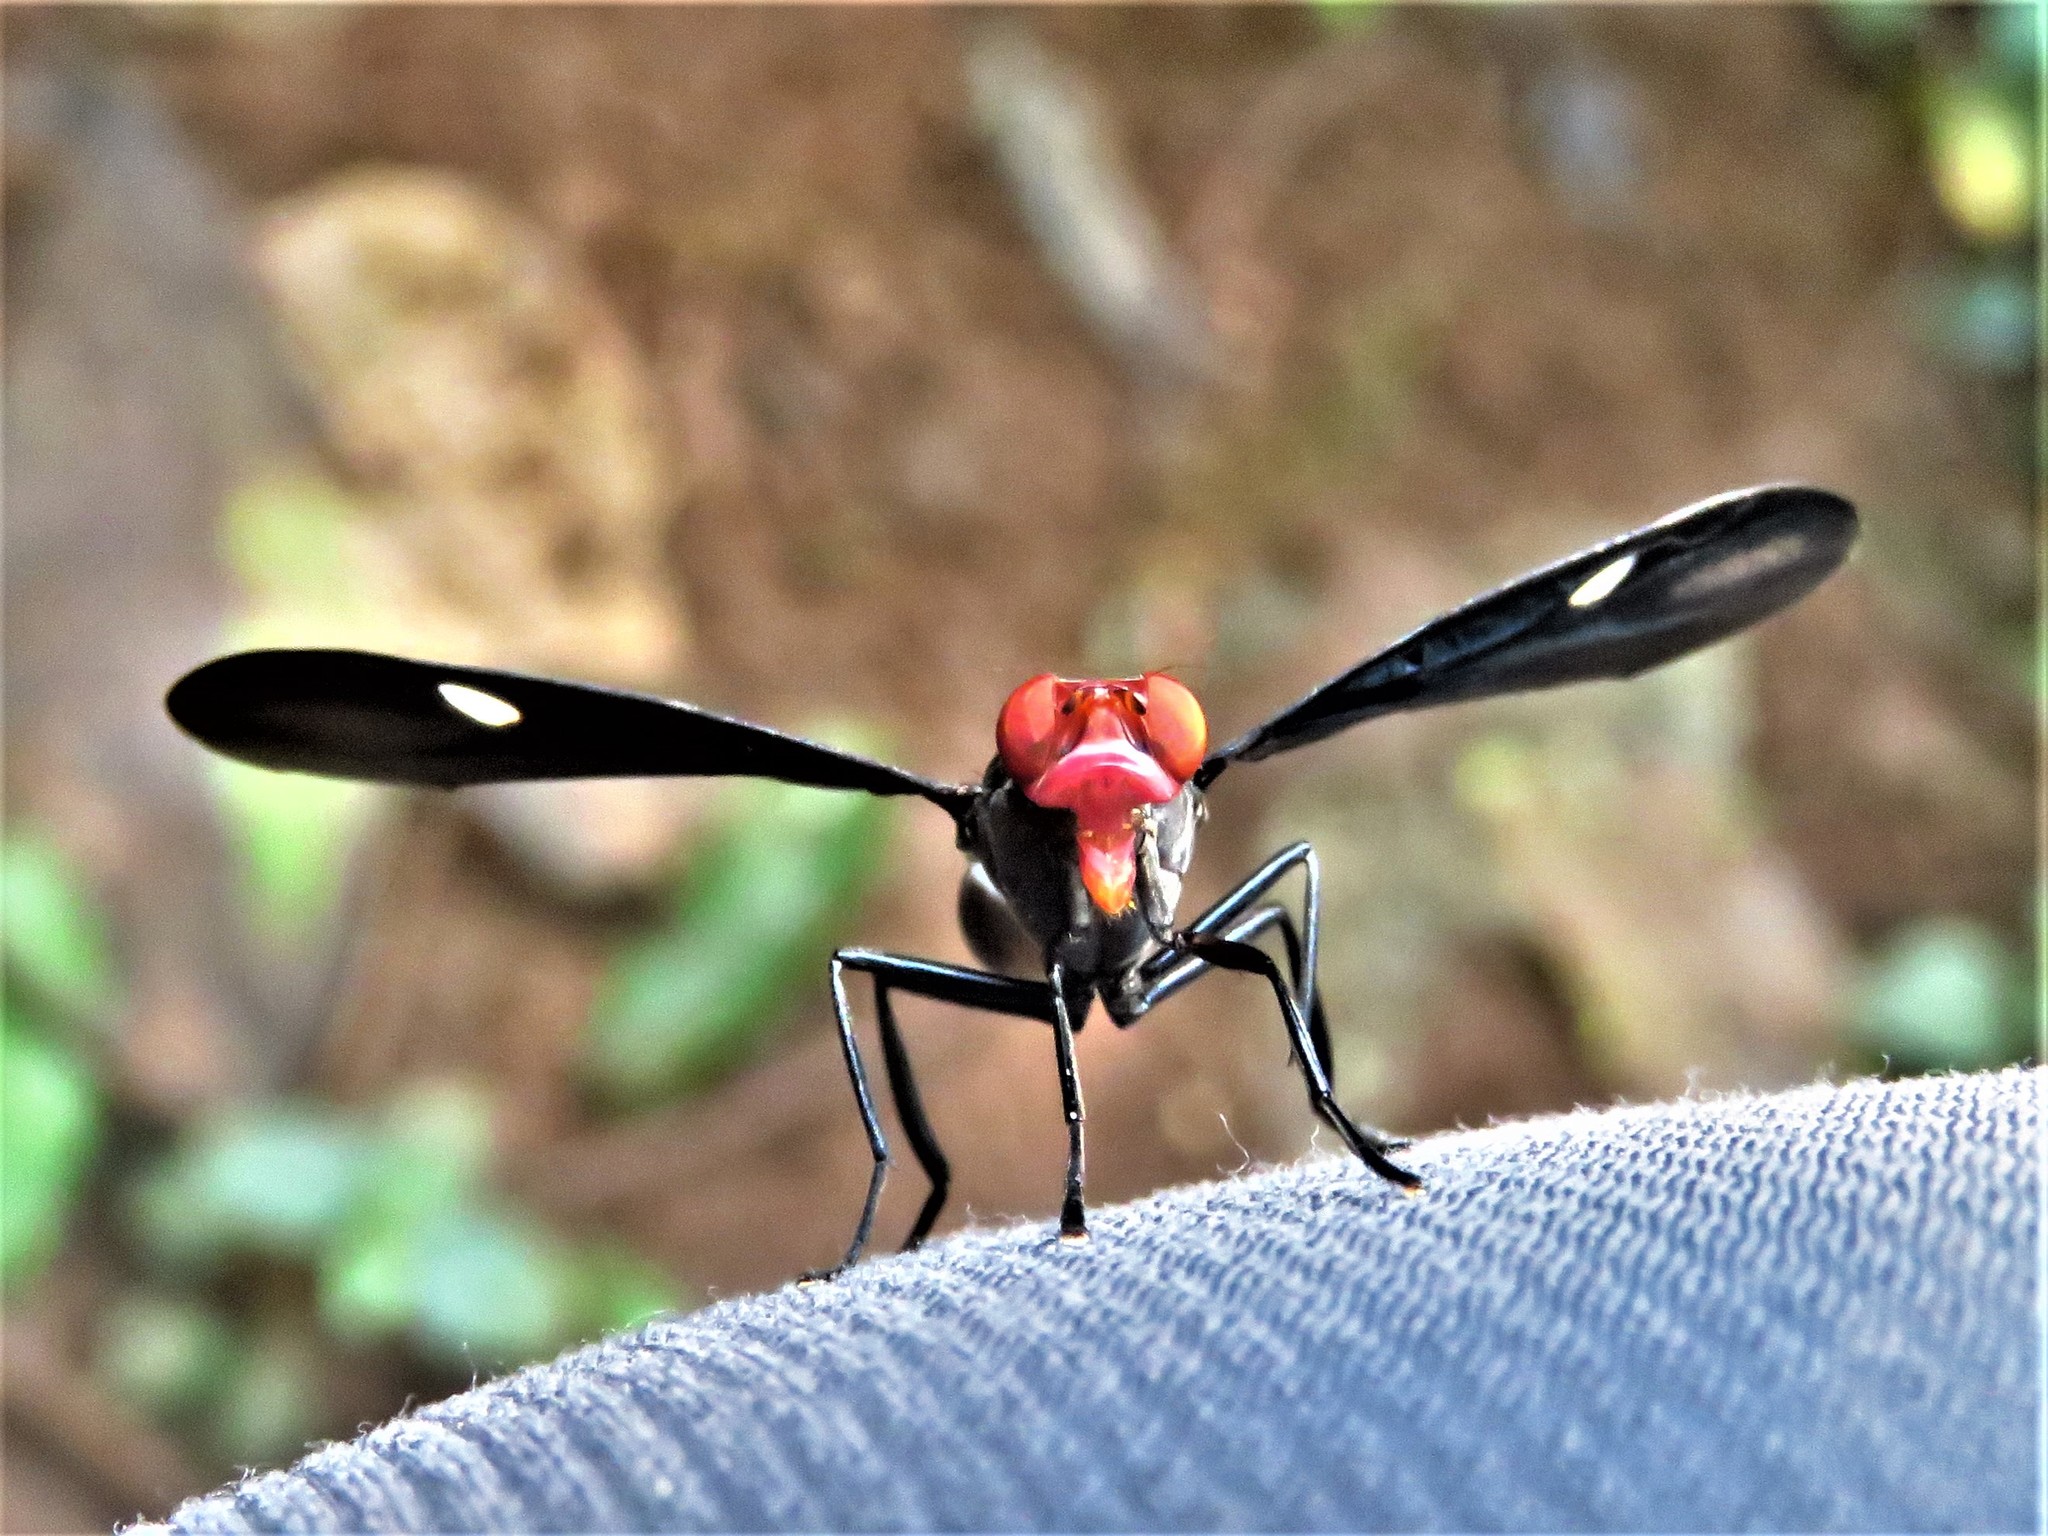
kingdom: Animalia
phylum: Arthropoda
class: Insecta
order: Diptera
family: Platystomatidae
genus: Clitodoca
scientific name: Clitodoca fenestralis
